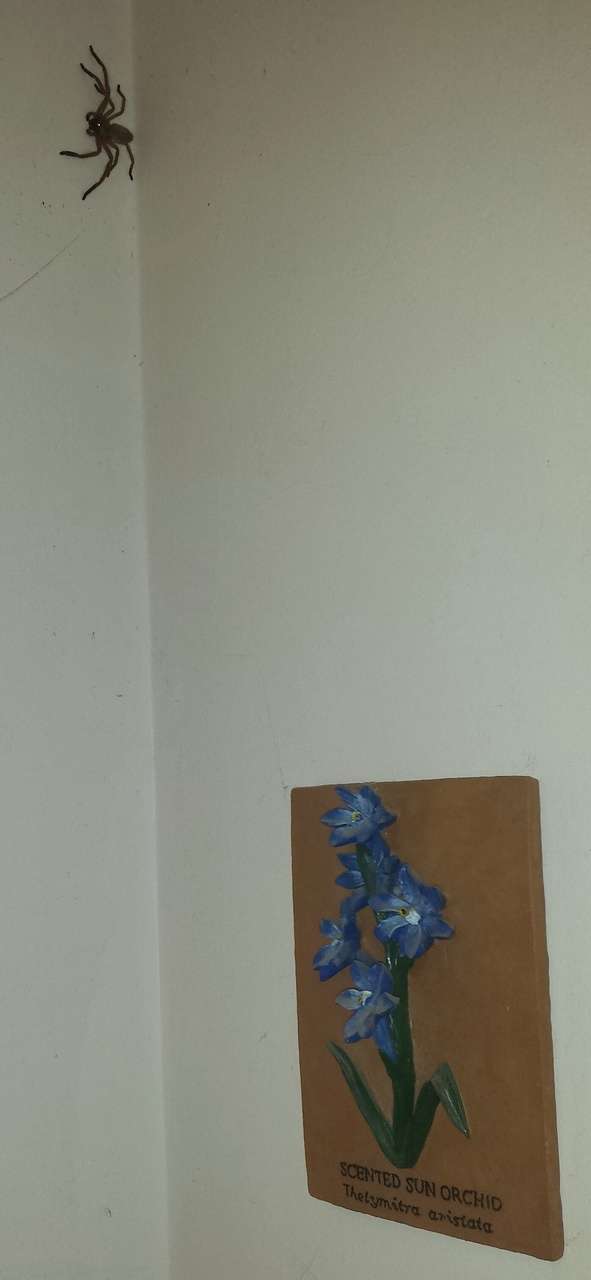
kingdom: Animalia
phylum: Arthropoda
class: Arachnida
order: Araneae
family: Sparassidae
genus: Delena
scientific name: Delena cancerides
